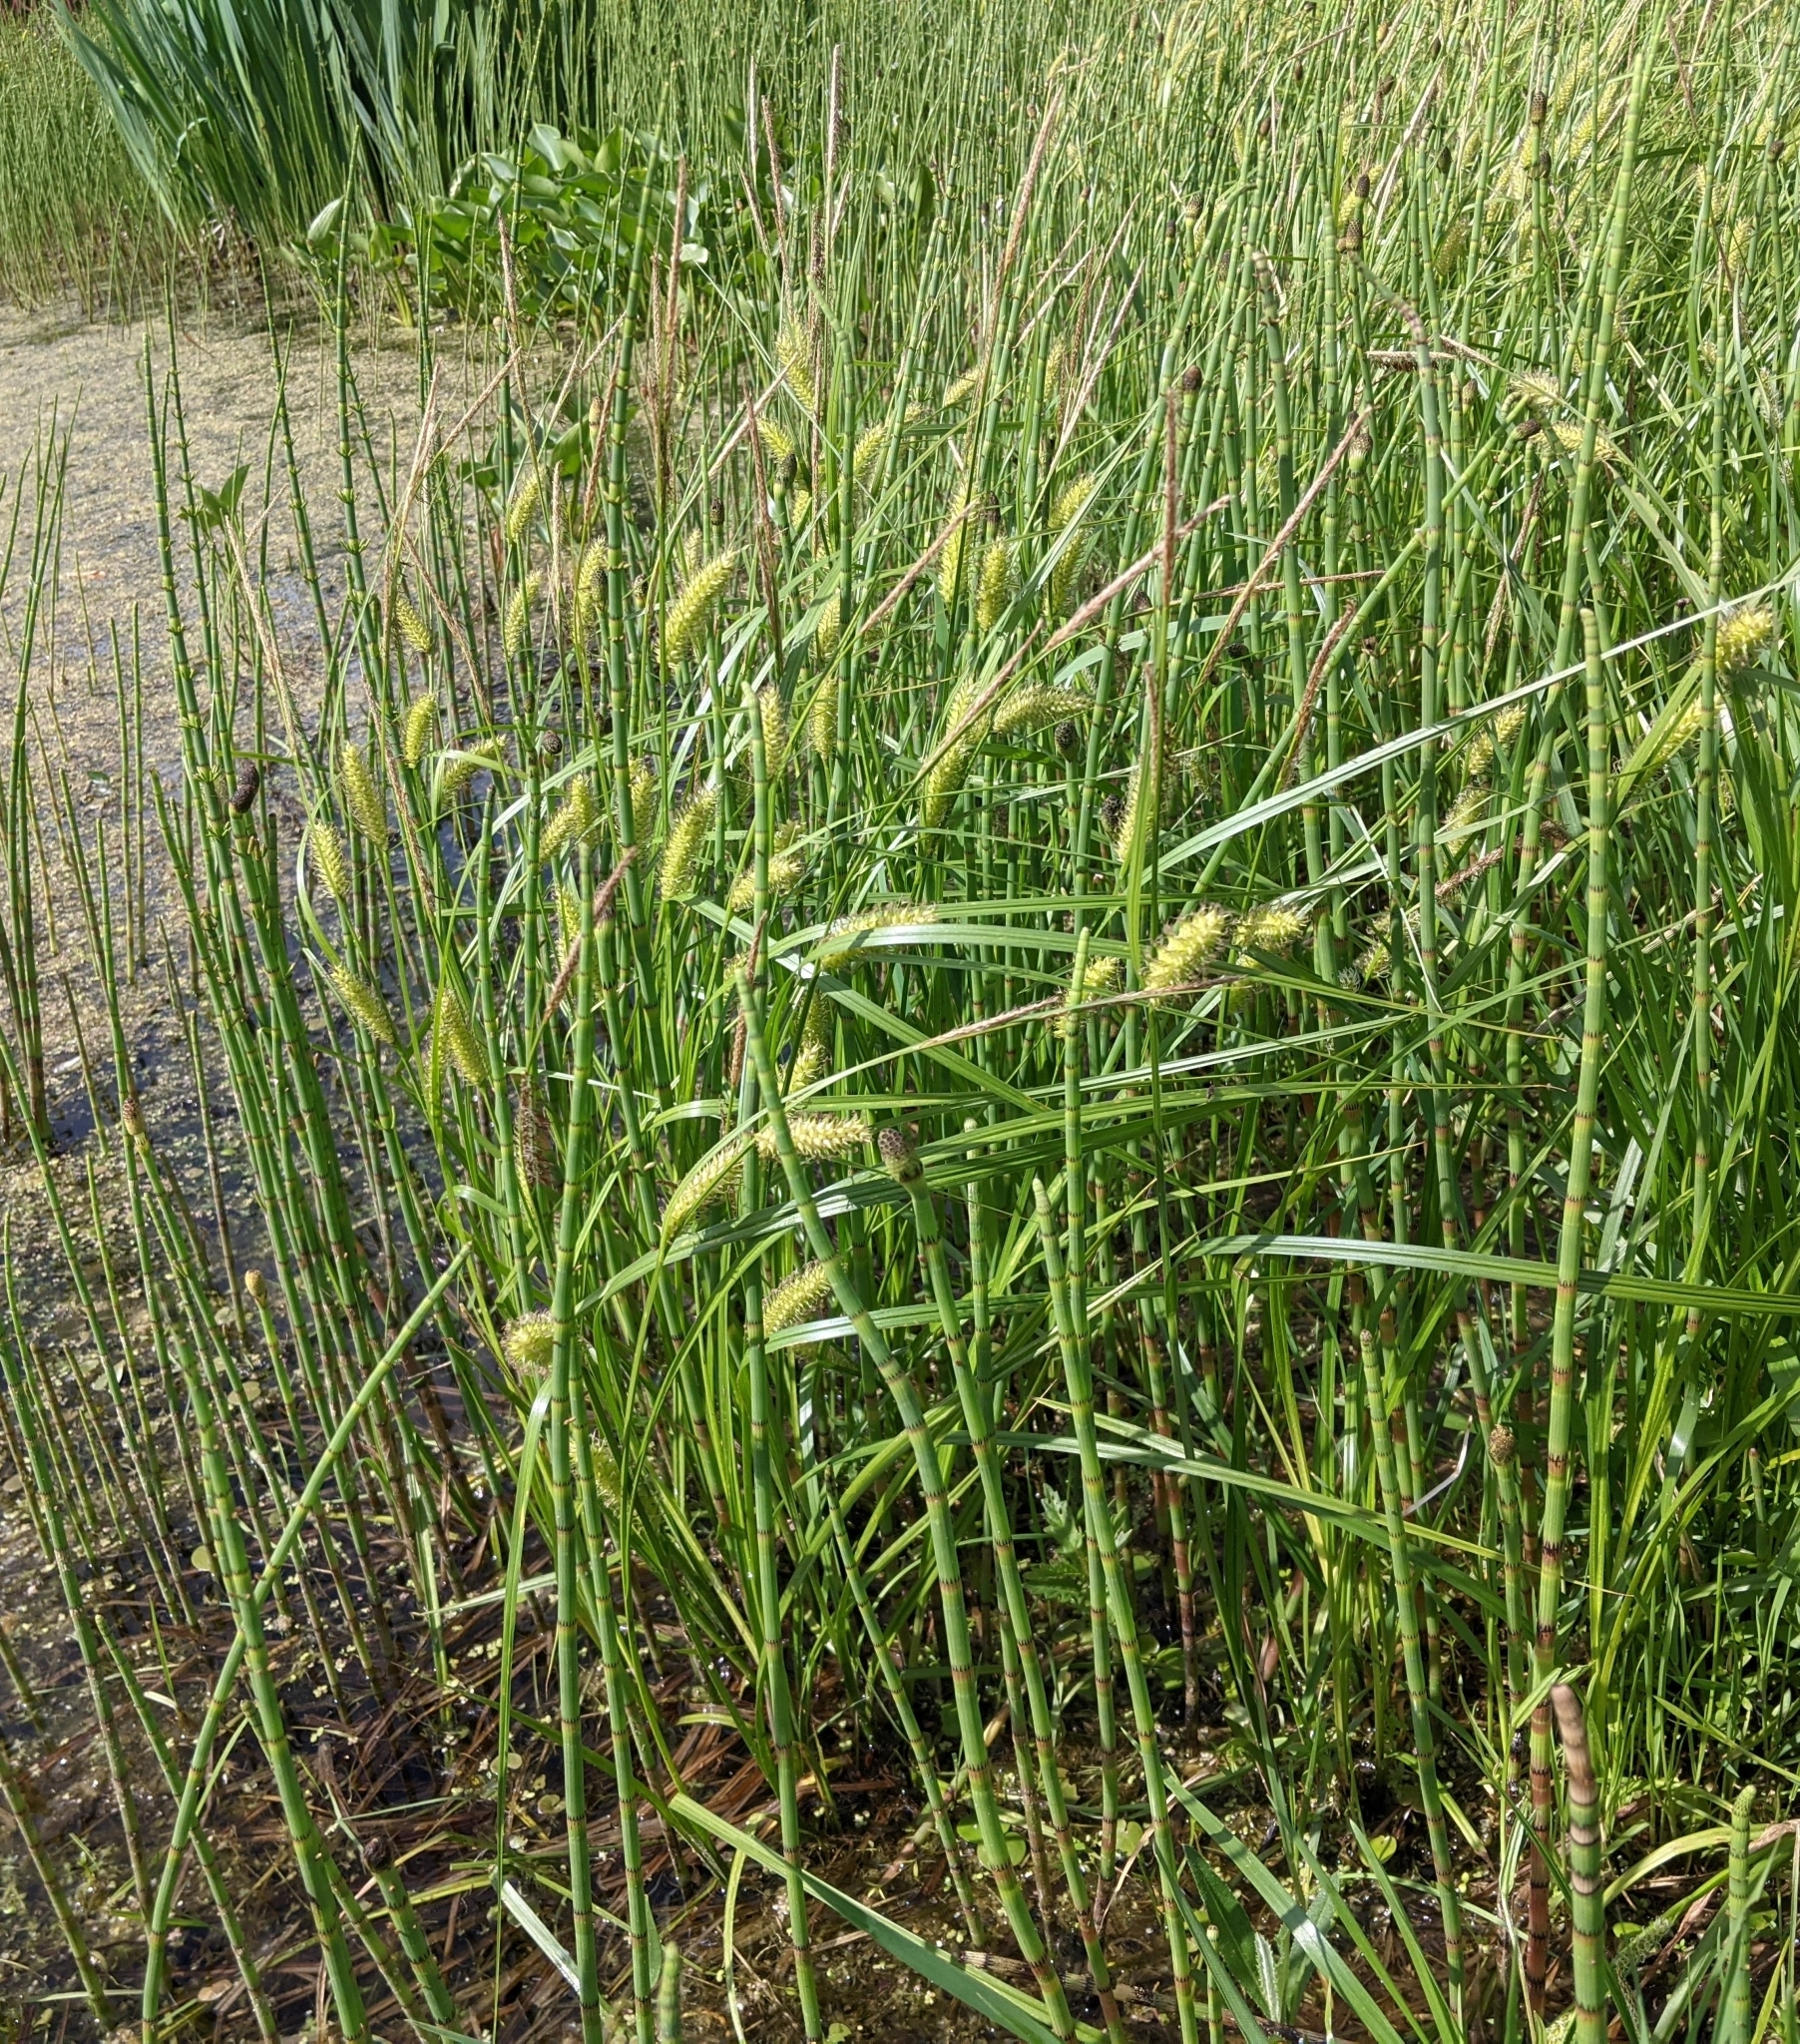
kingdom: Plantae
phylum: Tracheophyta
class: Liliopsida
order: Poales
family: Cyperaceae
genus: Carex
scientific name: Carex vesicaria
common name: Bladder-sedge
